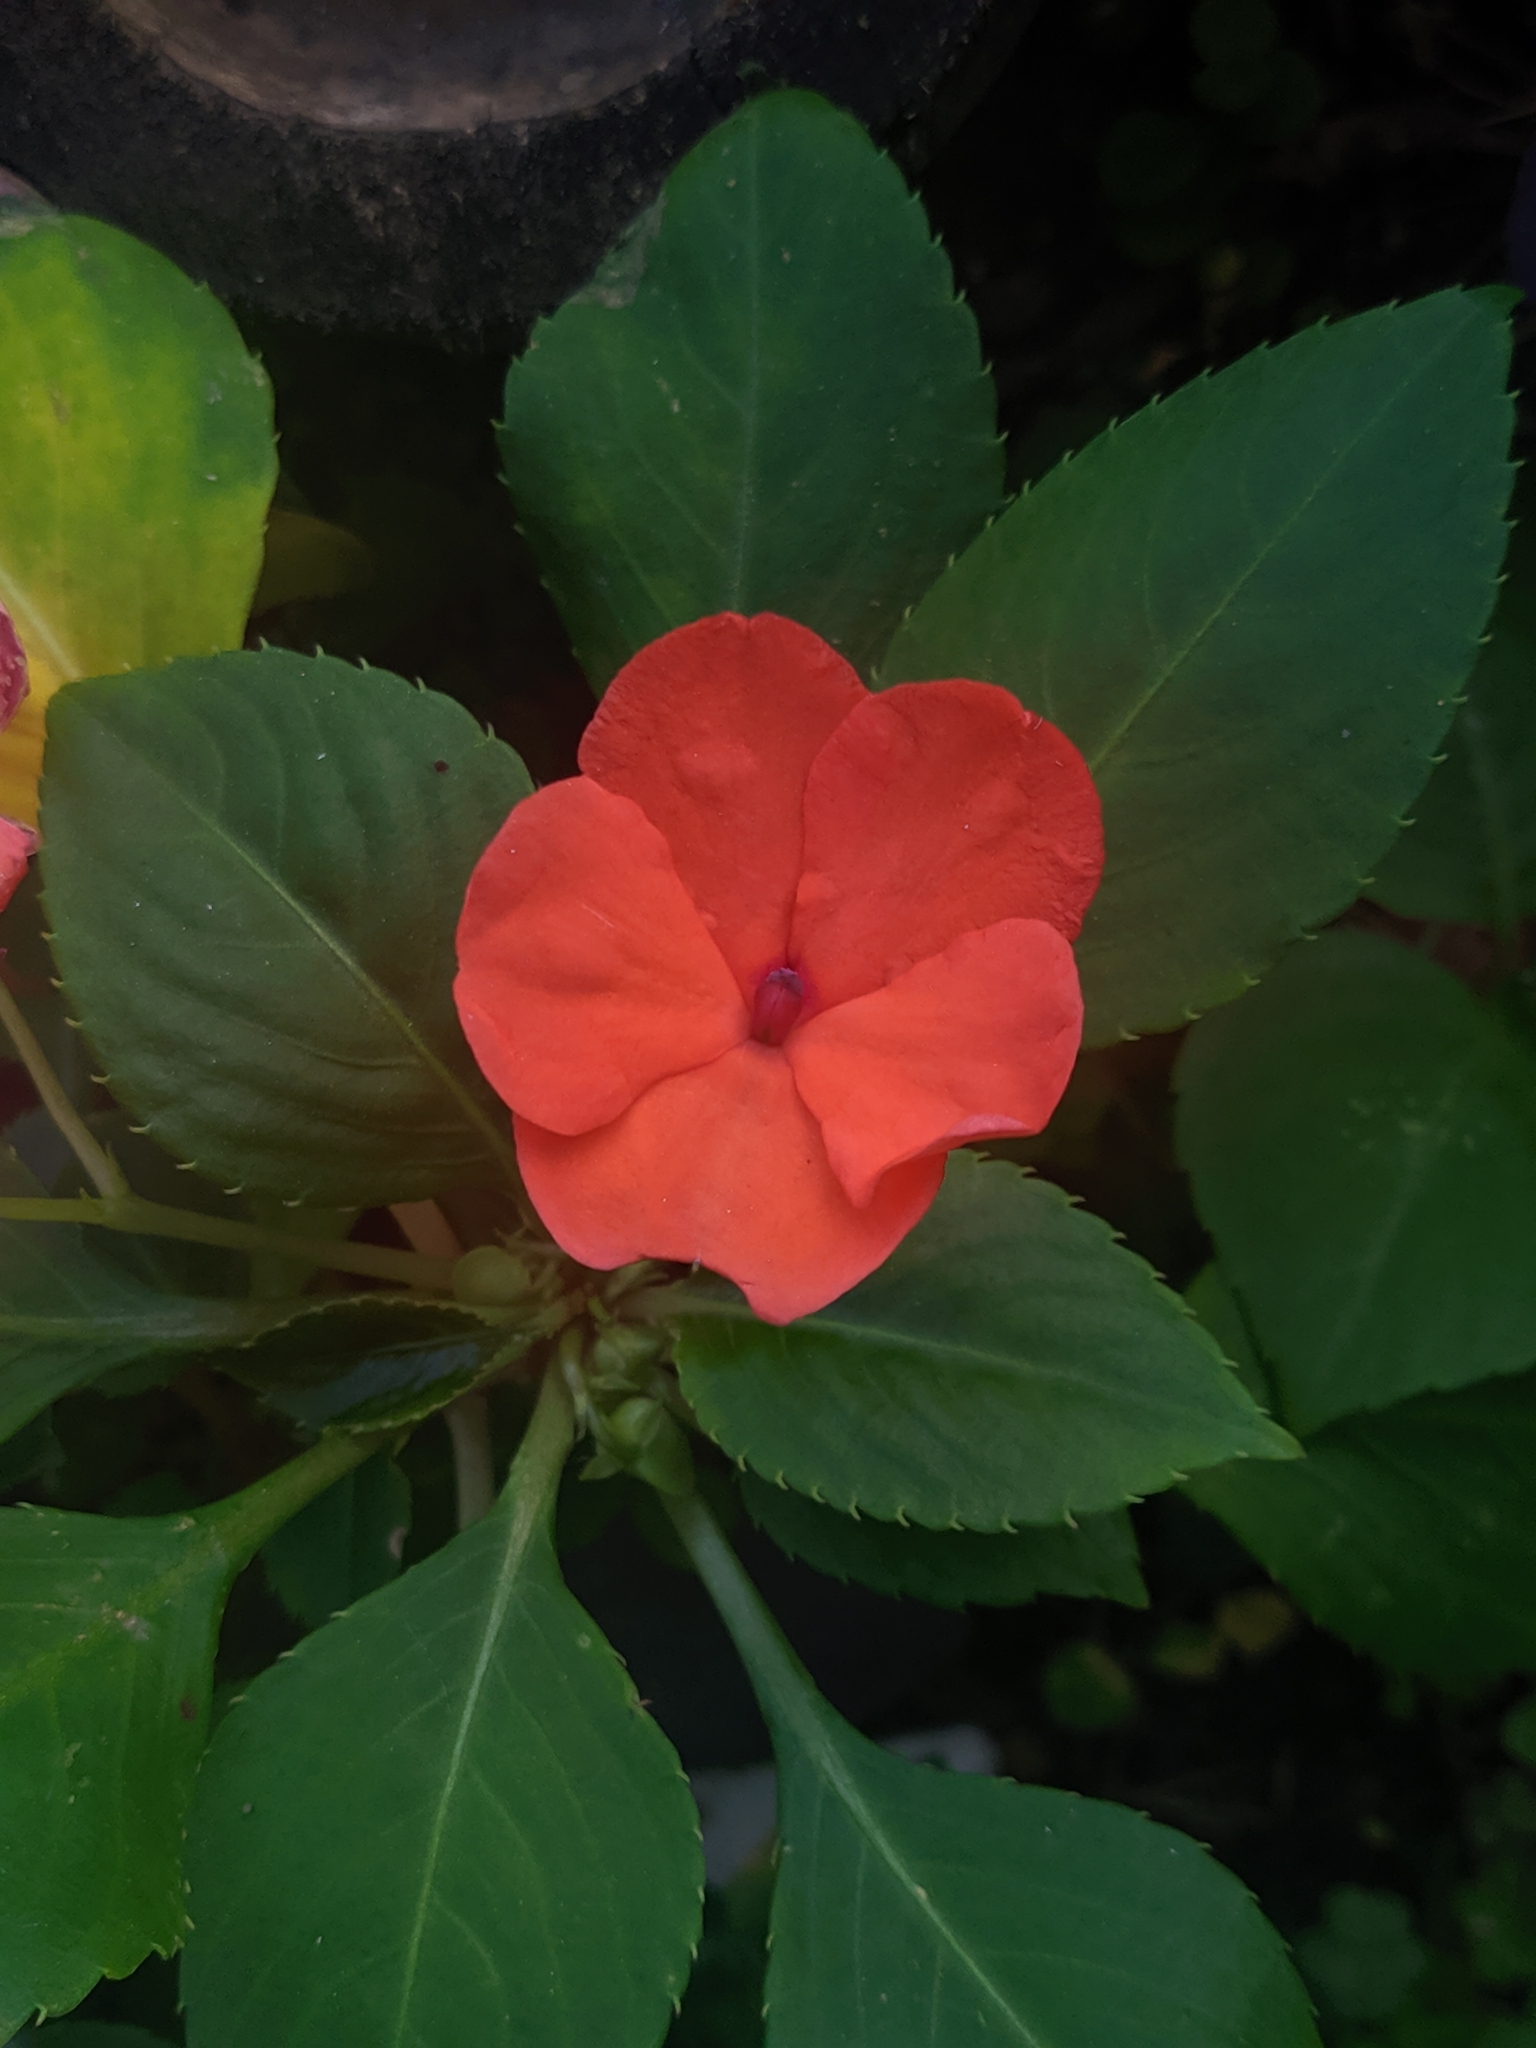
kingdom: Plantae
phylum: Tracheophyta
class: Magnoliopsida
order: Ericales
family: Balsaminaceae
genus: Impatiens
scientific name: Impatiens walleriana
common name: Buzzy lizzy
